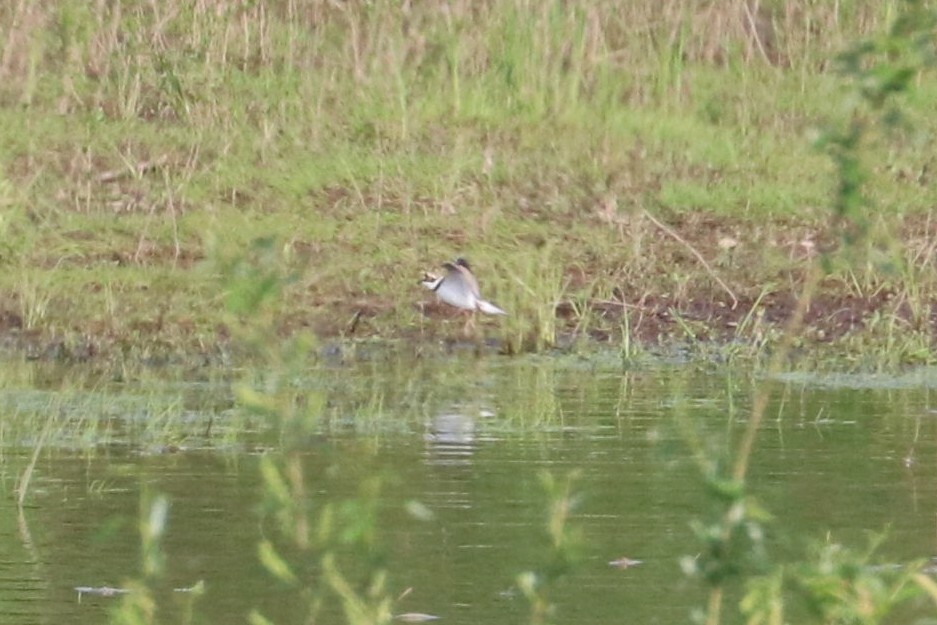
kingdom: Animalia
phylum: Chordata
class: Aves
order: Charadriiformes
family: Charadriidae
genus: Charadrius
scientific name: Charadrius dubius
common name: Little ringed plover
